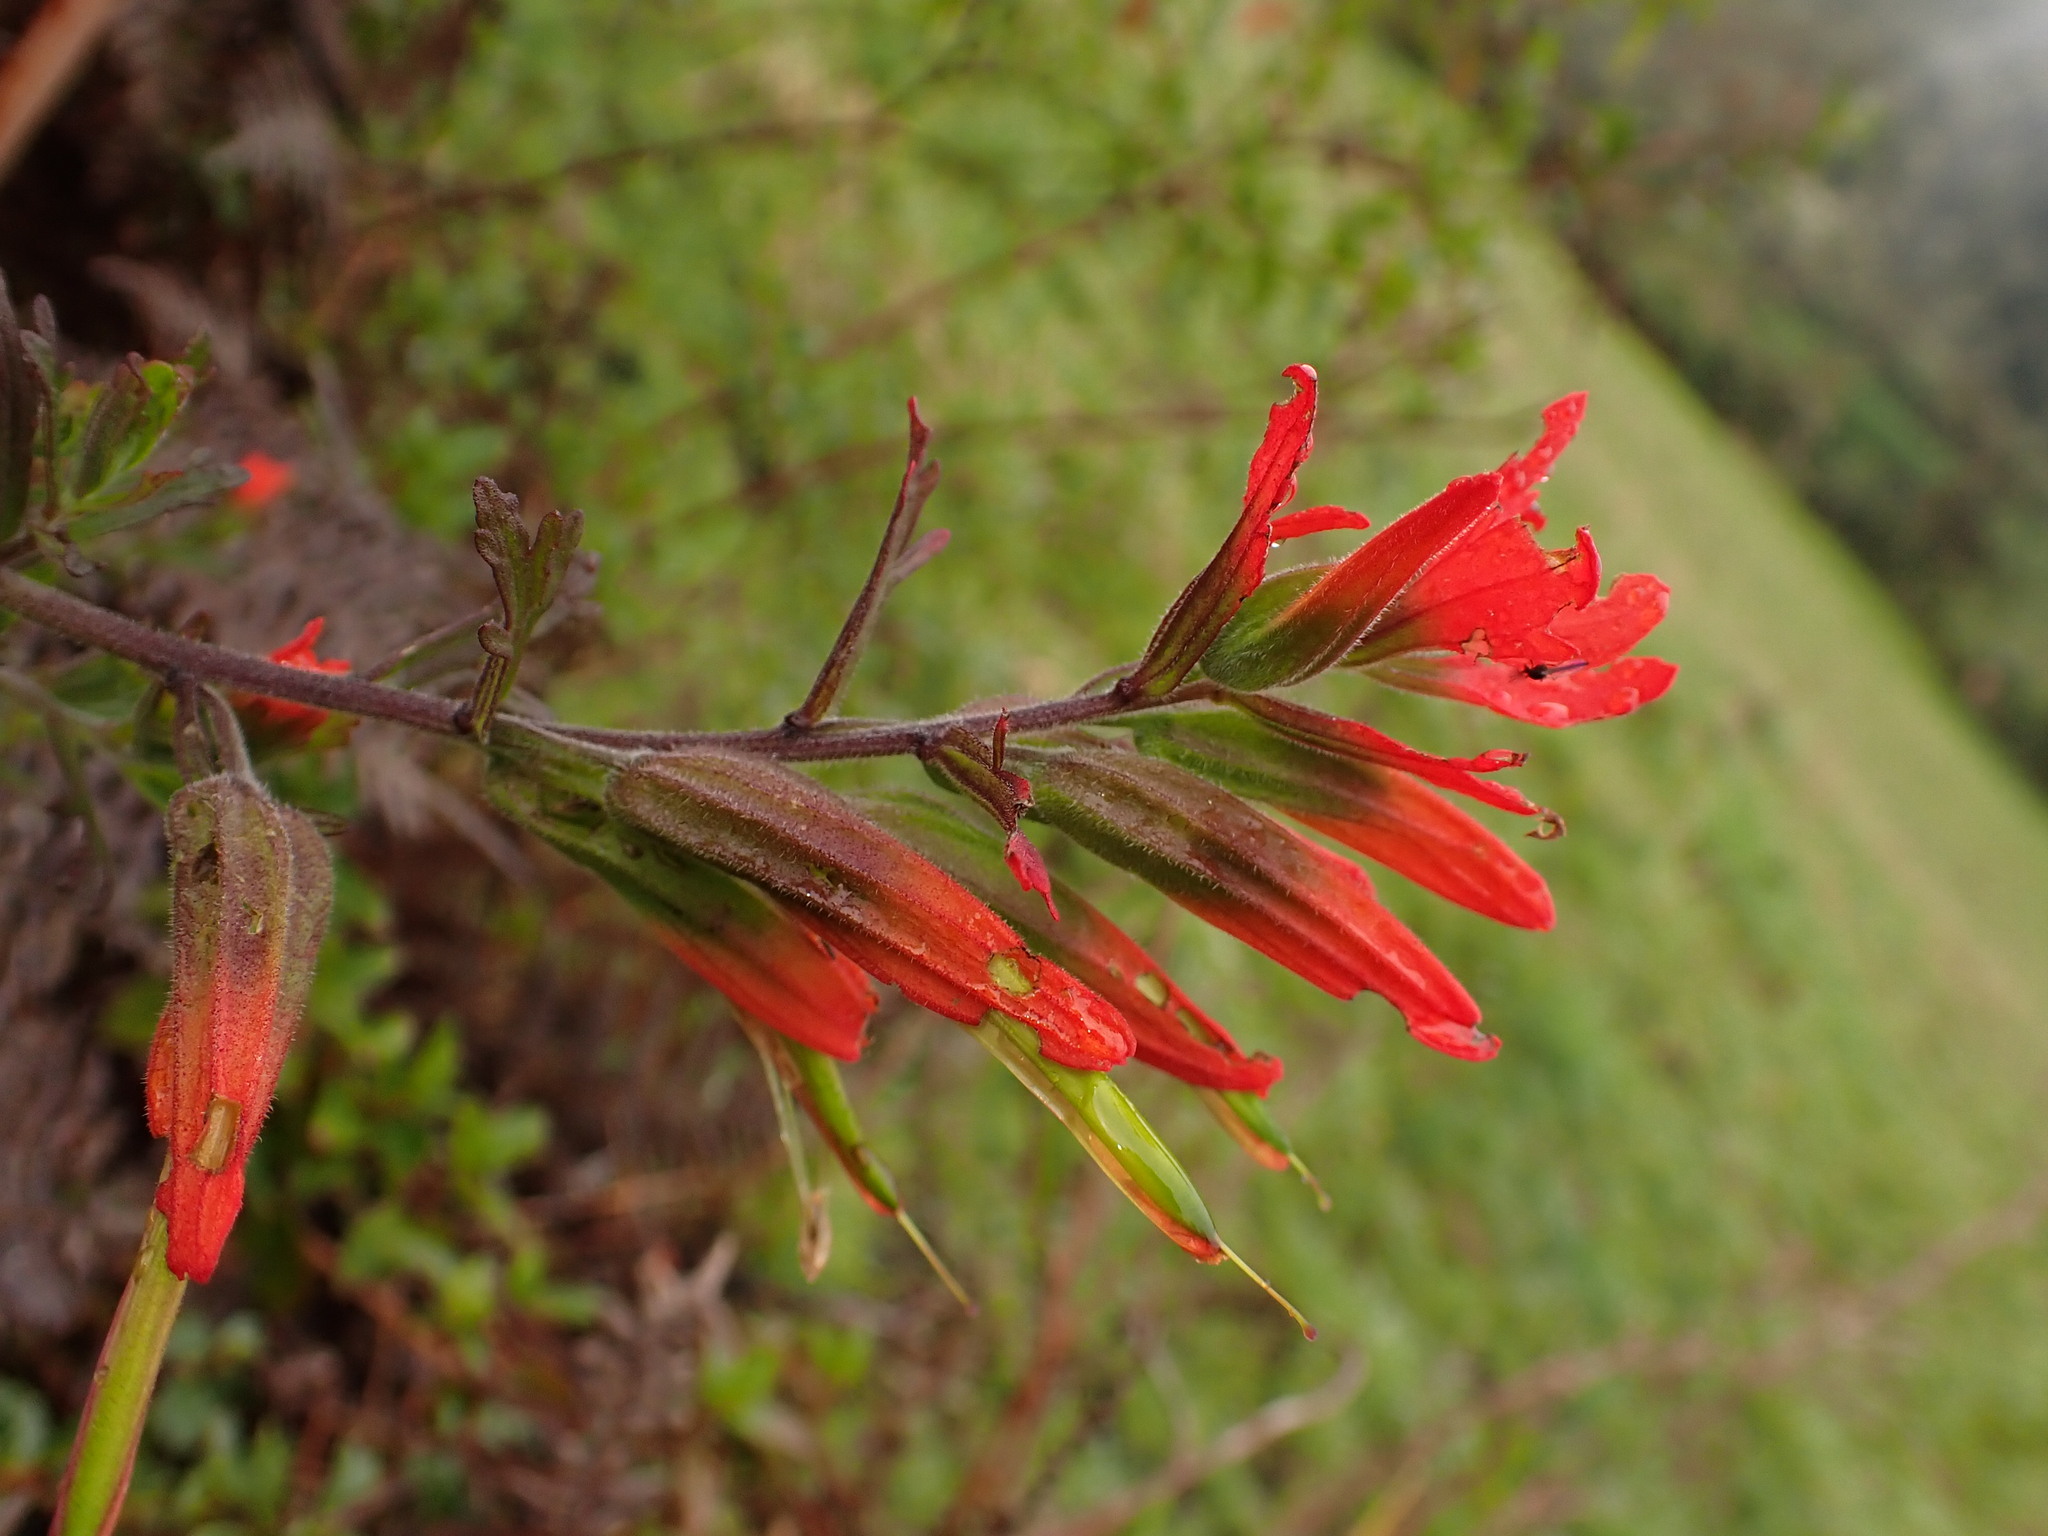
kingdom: Plantae
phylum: Tracheophyta
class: Magnoliopsida
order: Lamiales
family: Orobanchaceae
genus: Castilleja
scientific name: Castilleja fissifolia
